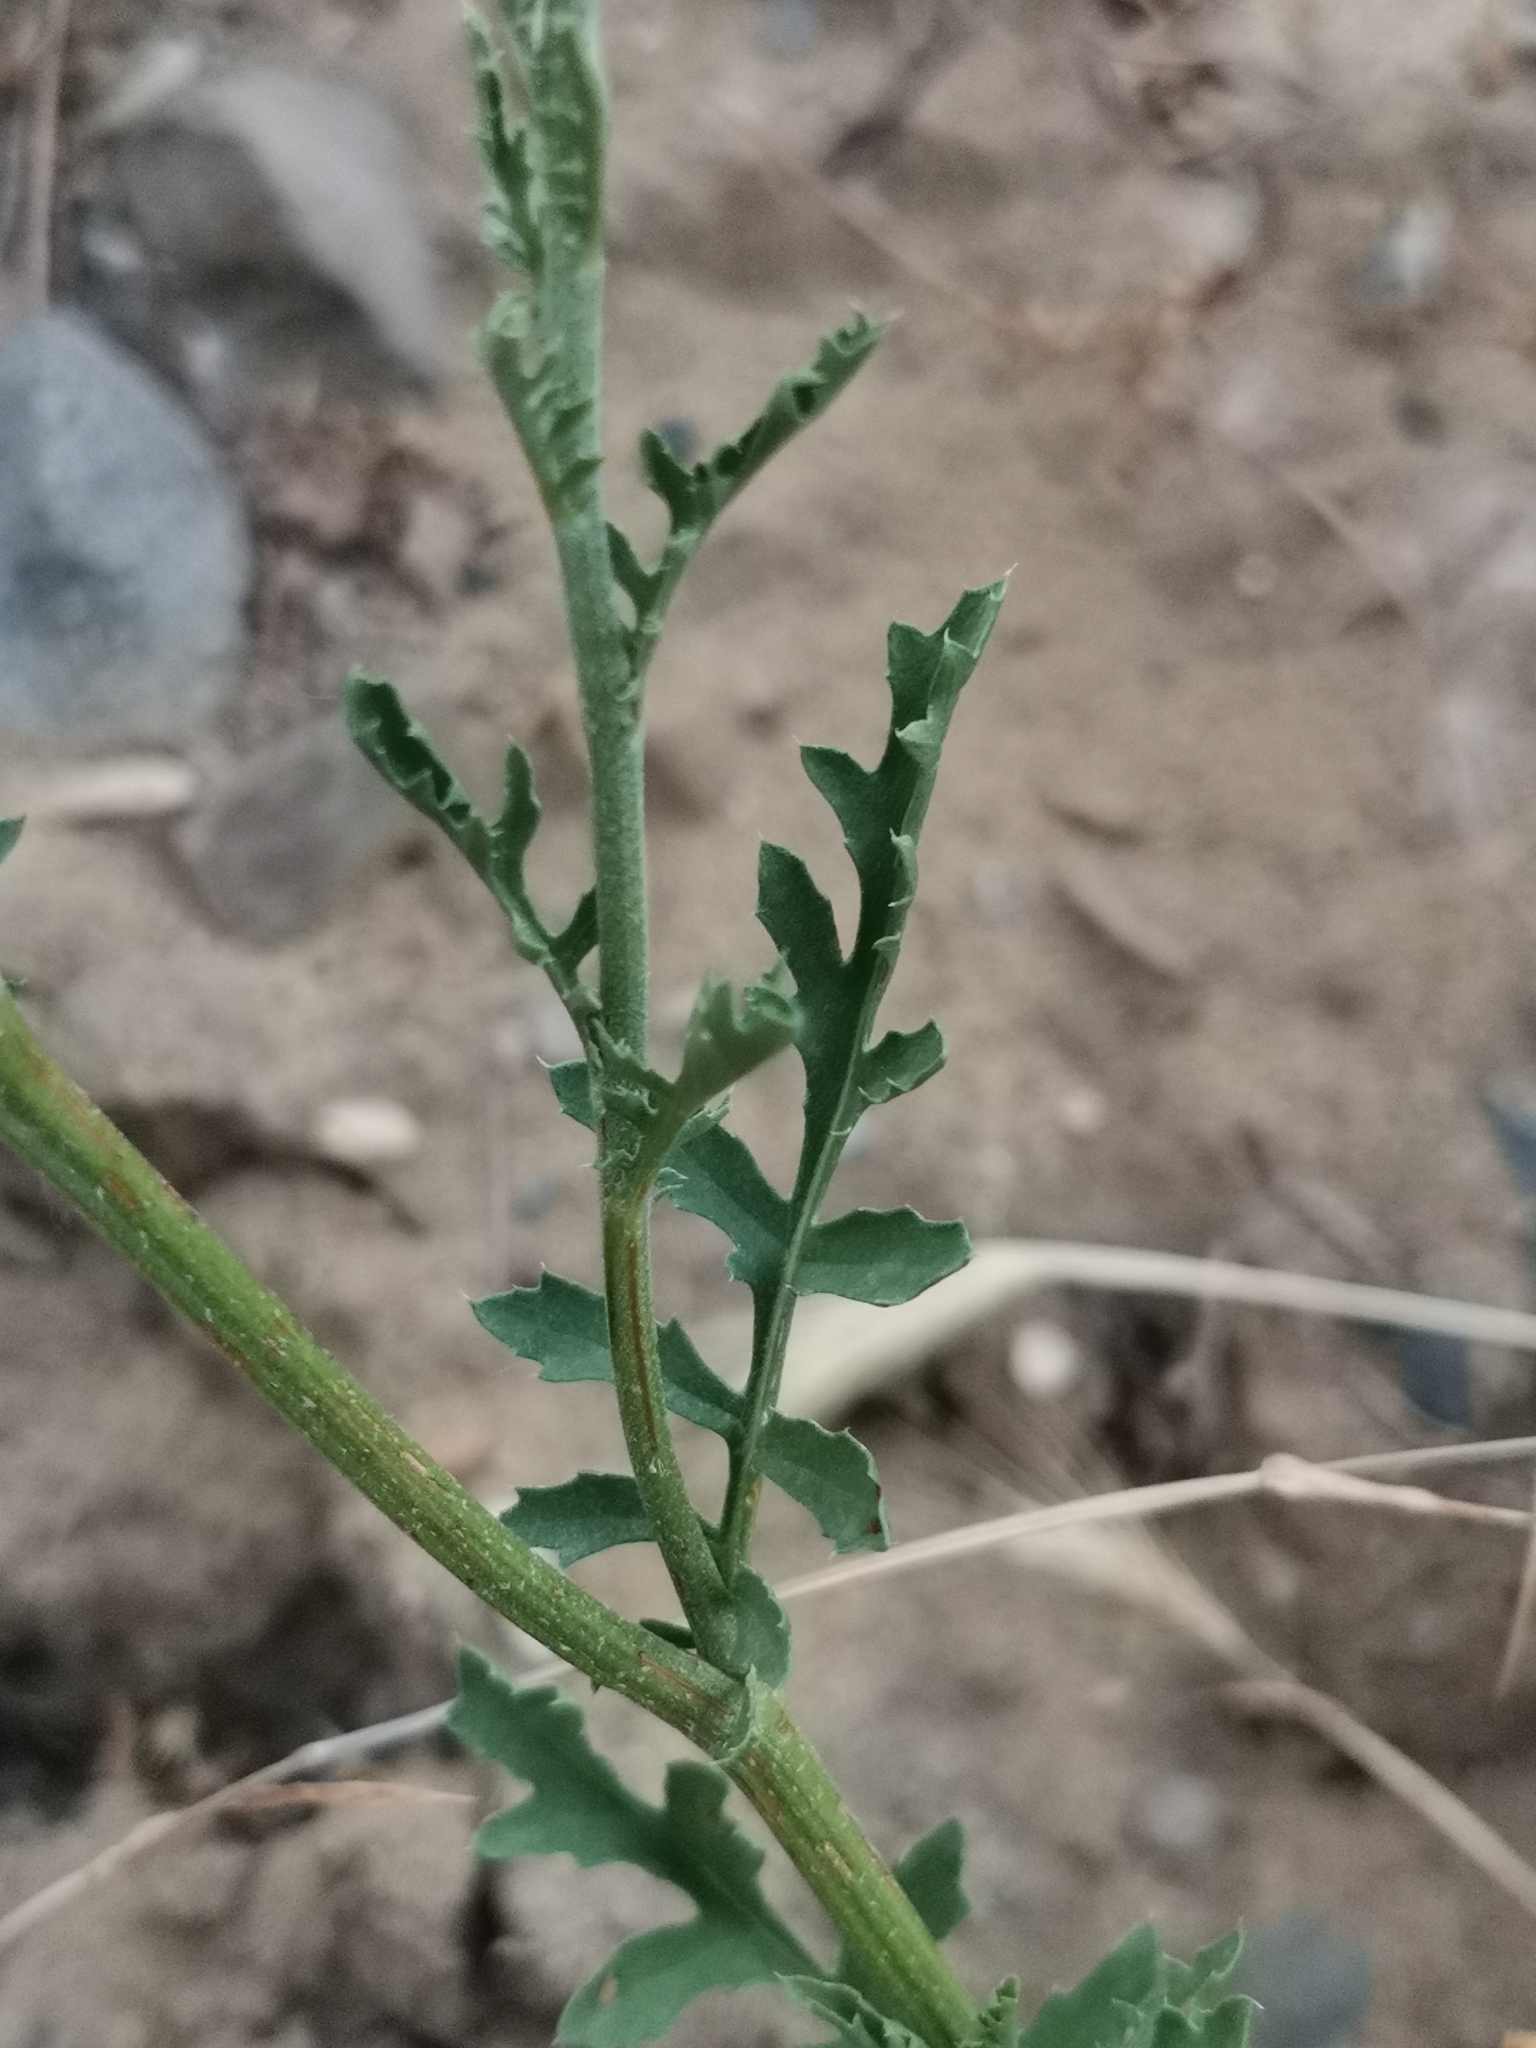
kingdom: Plantae
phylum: Tracheophyta
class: Magnoliopsida
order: Asterales
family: Asteraceae
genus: Amberboa
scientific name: Amberboa glauca
